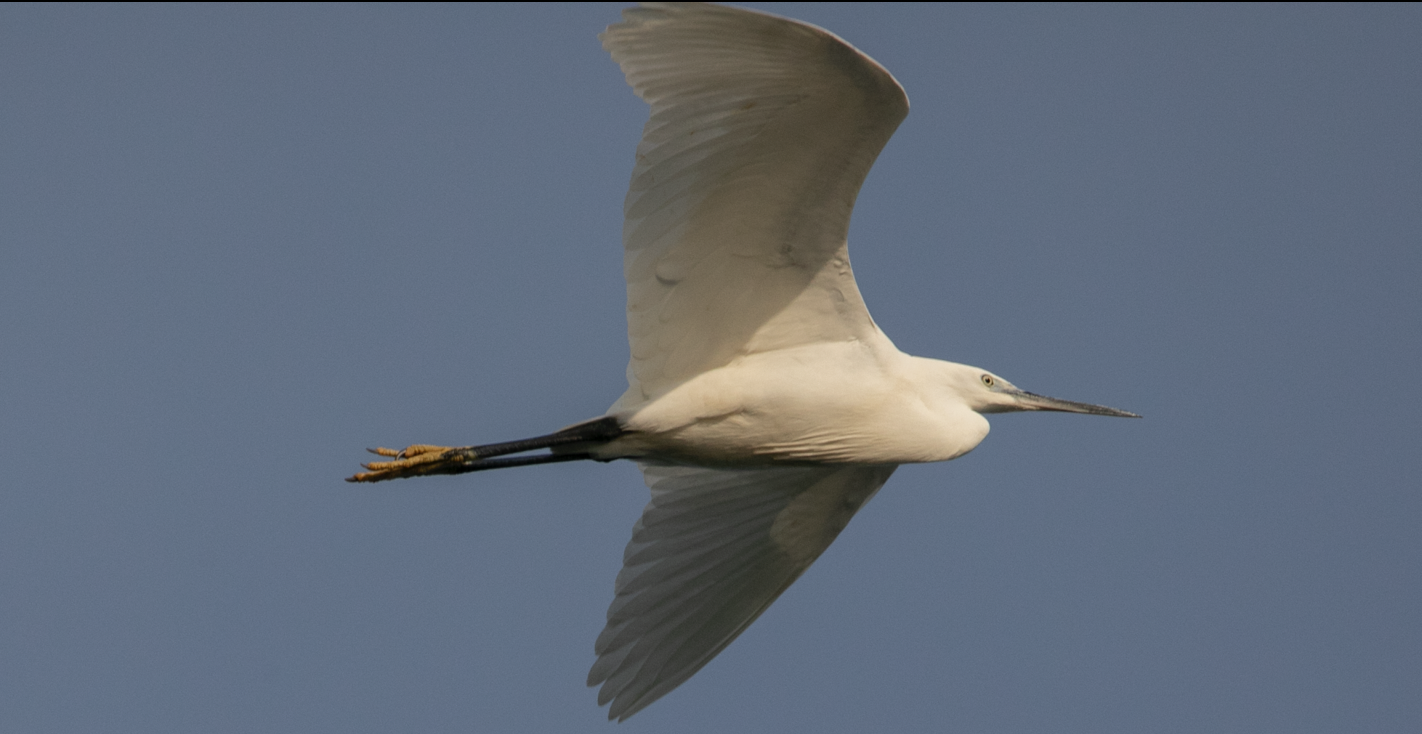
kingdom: Animalia
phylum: Chordata
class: Aves
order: Pelecaniformes
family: Ardeidae
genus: Egretta
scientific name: Egretta garzetta
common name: Little egret
